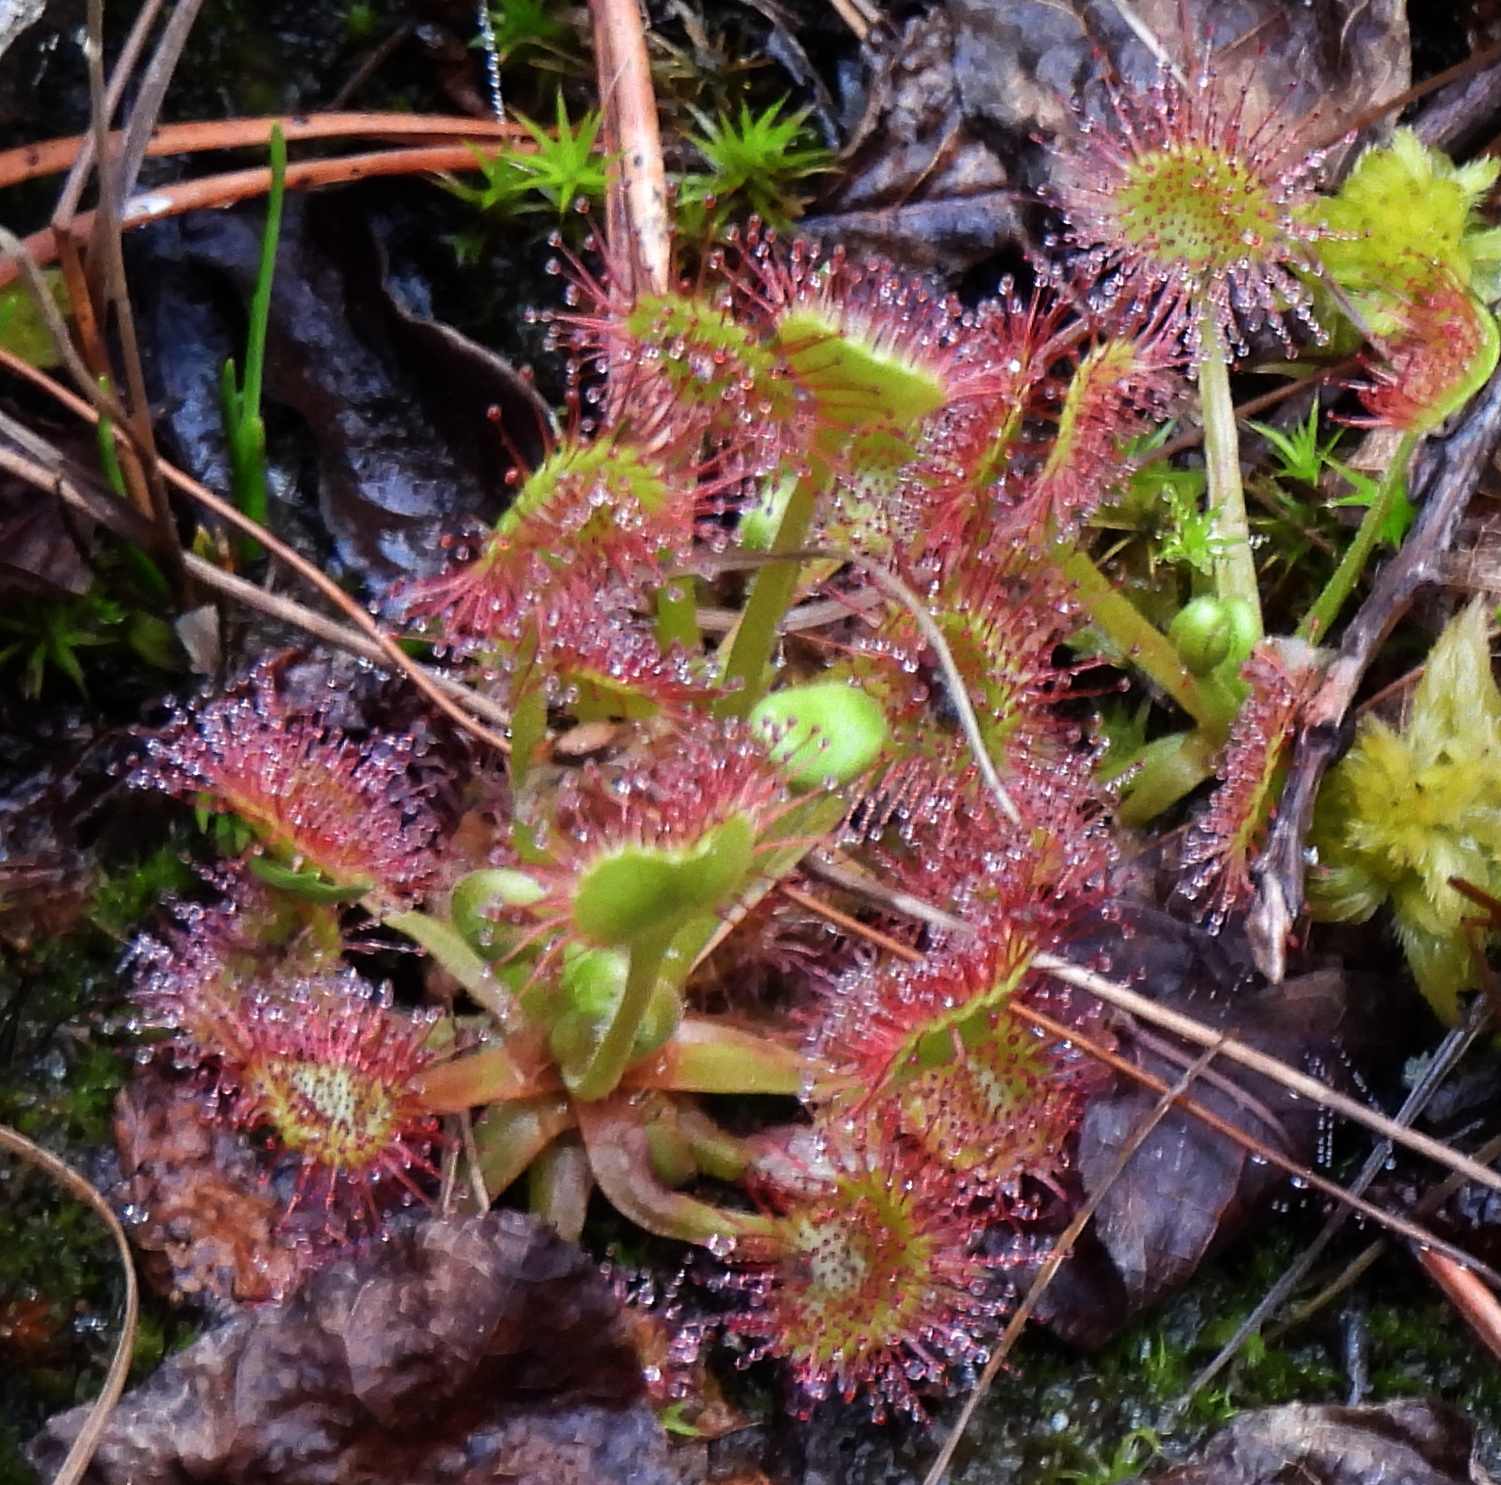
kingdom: Plantae
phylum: Tracheophyta
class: Magnoliopsida
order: Caryophyllales
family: Droseraceae
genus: Drosera
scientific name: Drosera rotundifolia
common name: Round-leaved sundew
